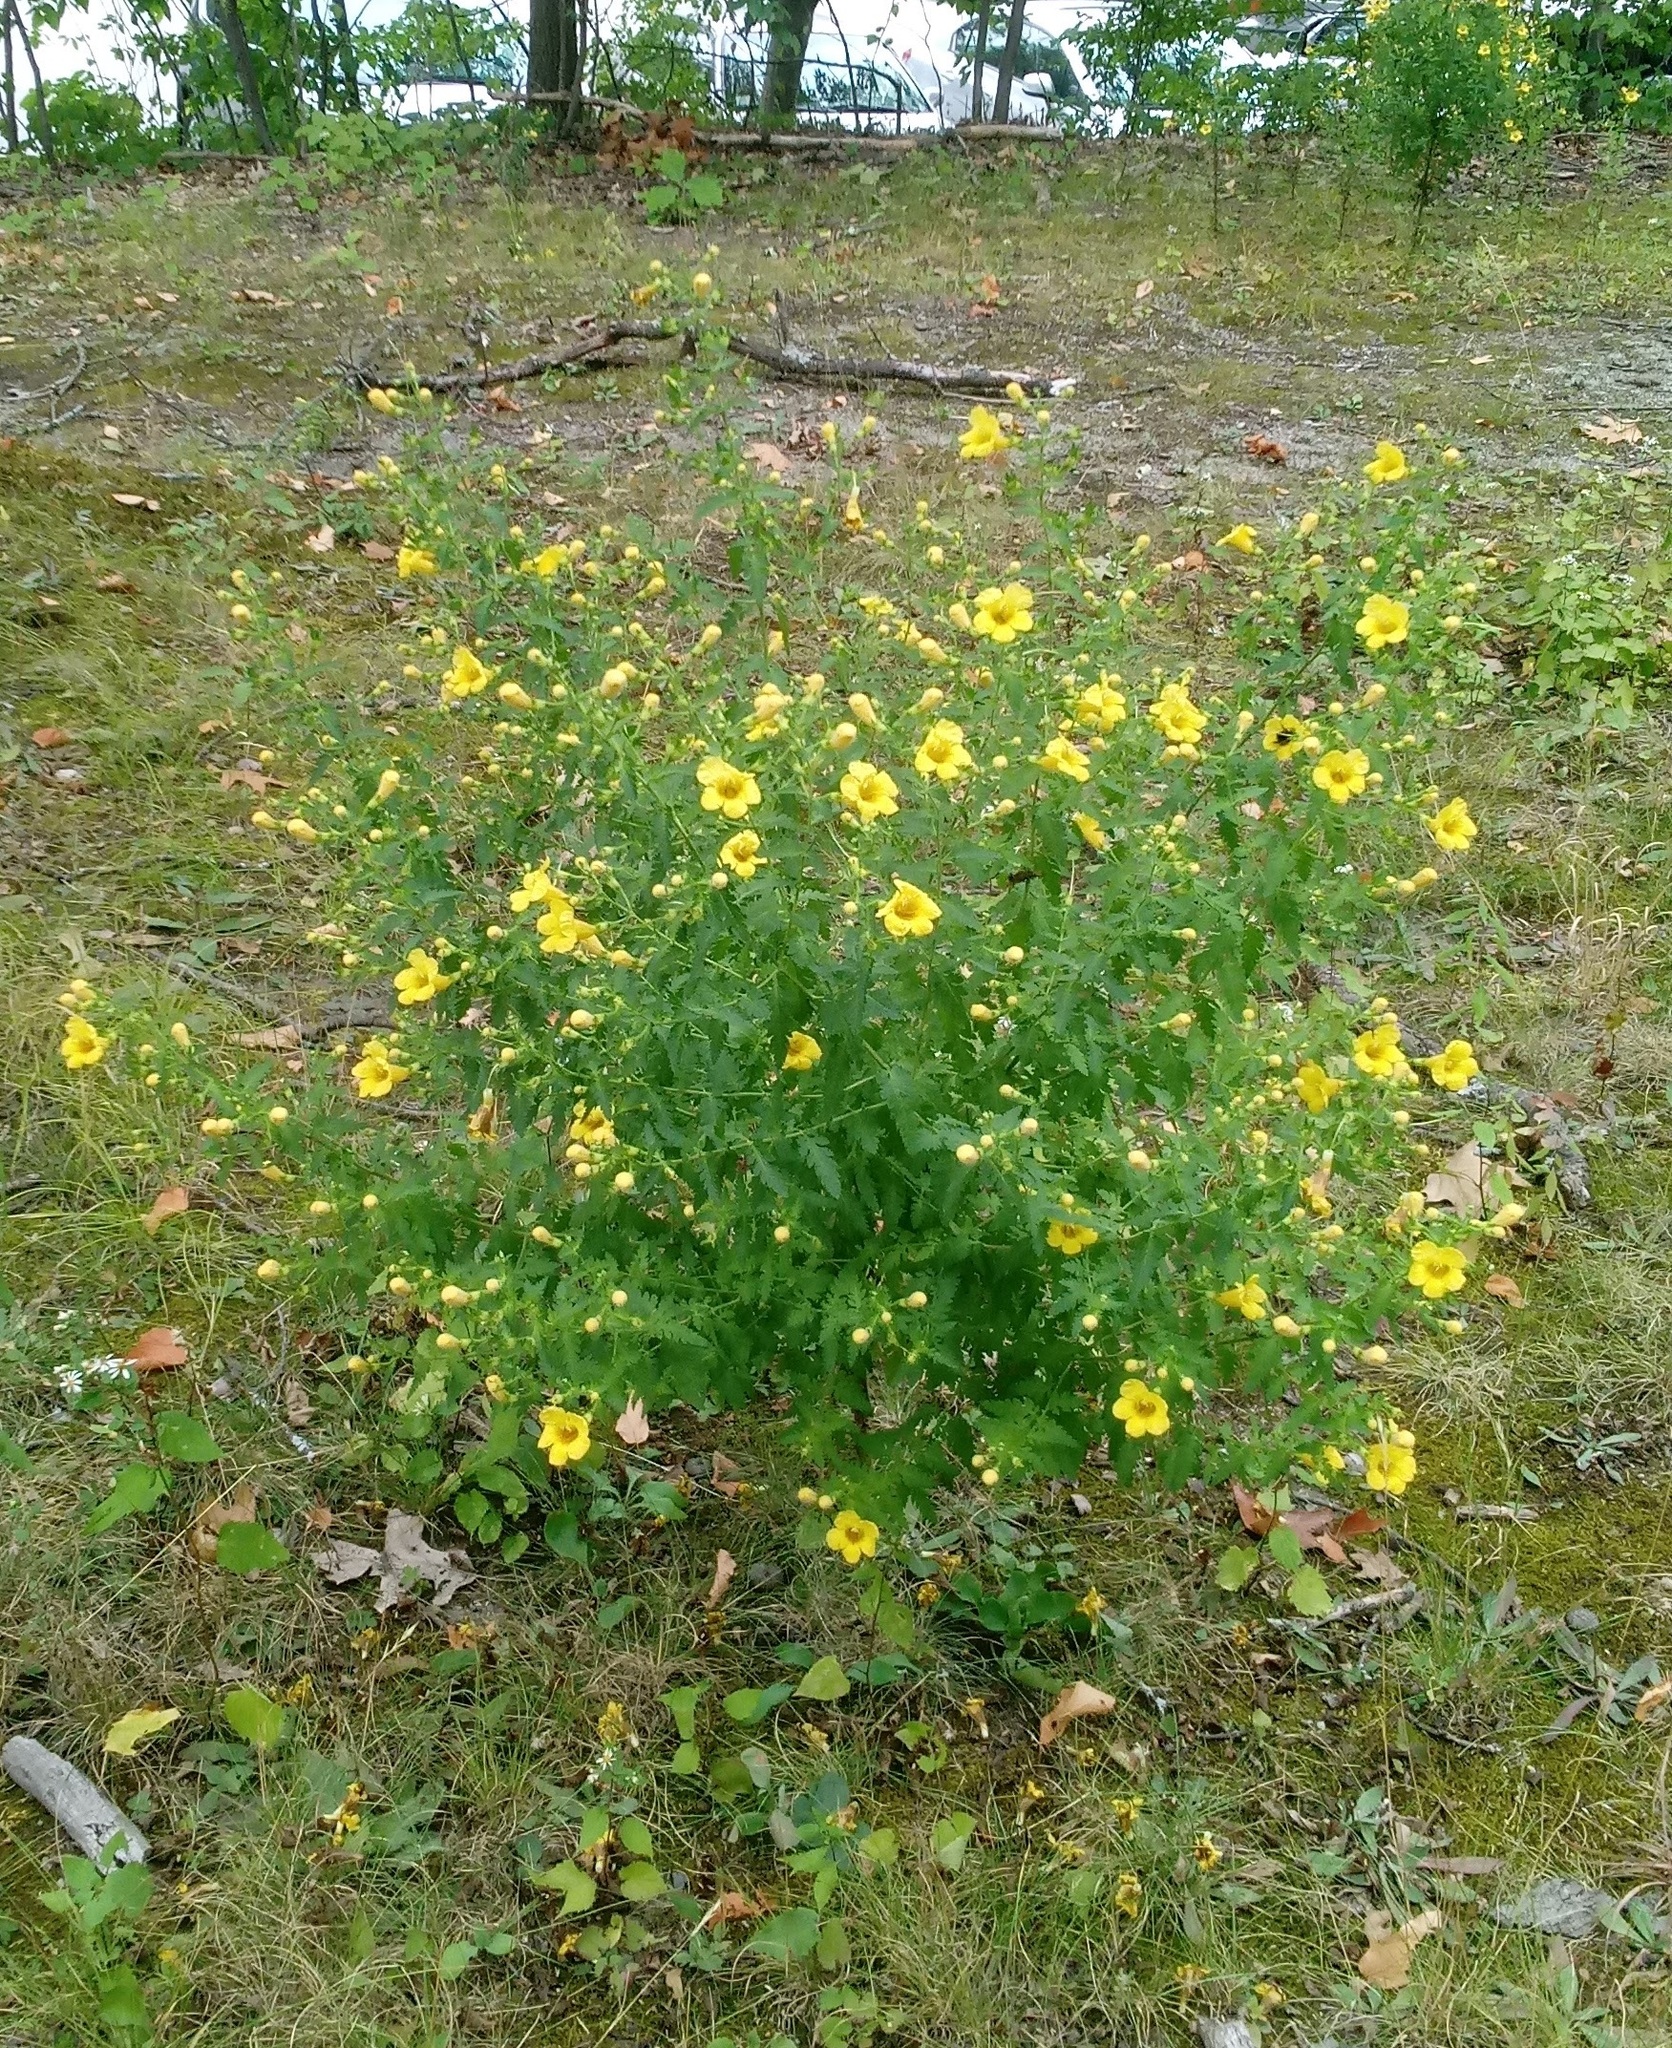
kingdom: Plantae
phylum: Tracheophyta
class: Magnoliopsida
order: Lamiales
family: Orobanchaceae
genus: Aureolaria
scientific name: Aureolaria pedicularia
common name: Annual false foxglove
